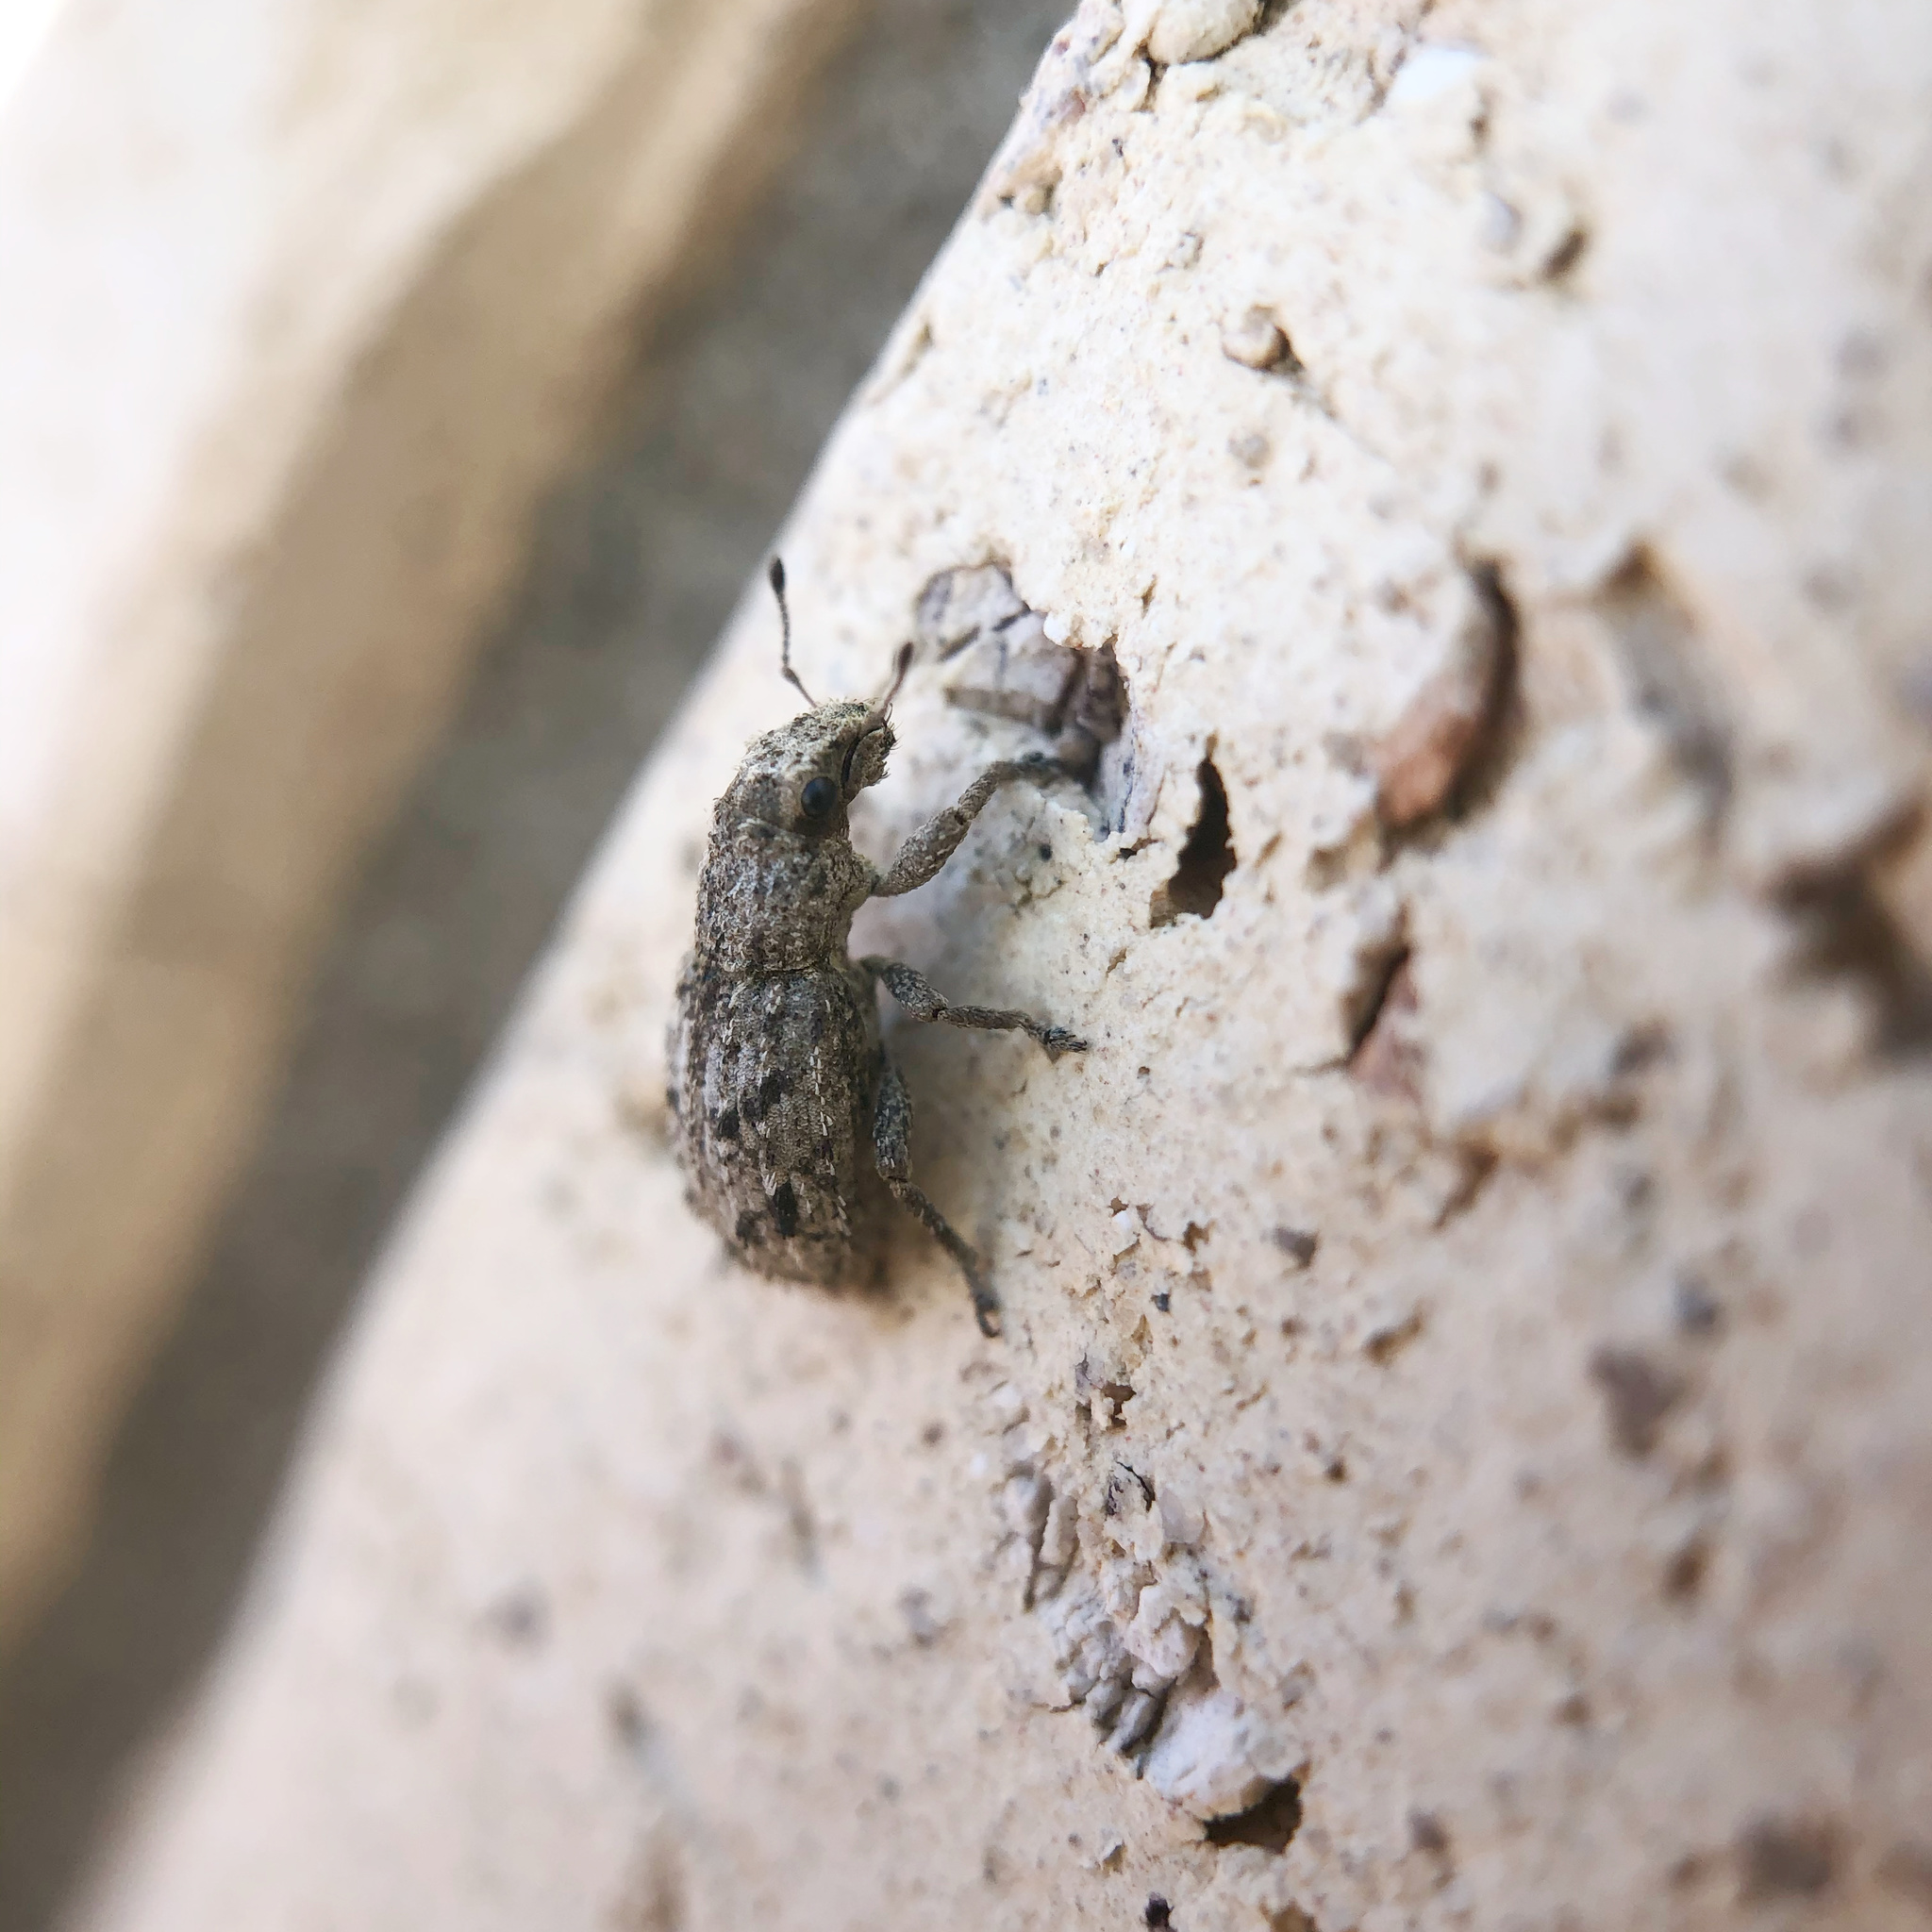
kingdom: Animalia
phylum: Arthropoda
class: Insecta
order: Coleoptera
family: Curculionidae
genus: Floresianus
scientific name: Floresianus sordidus
